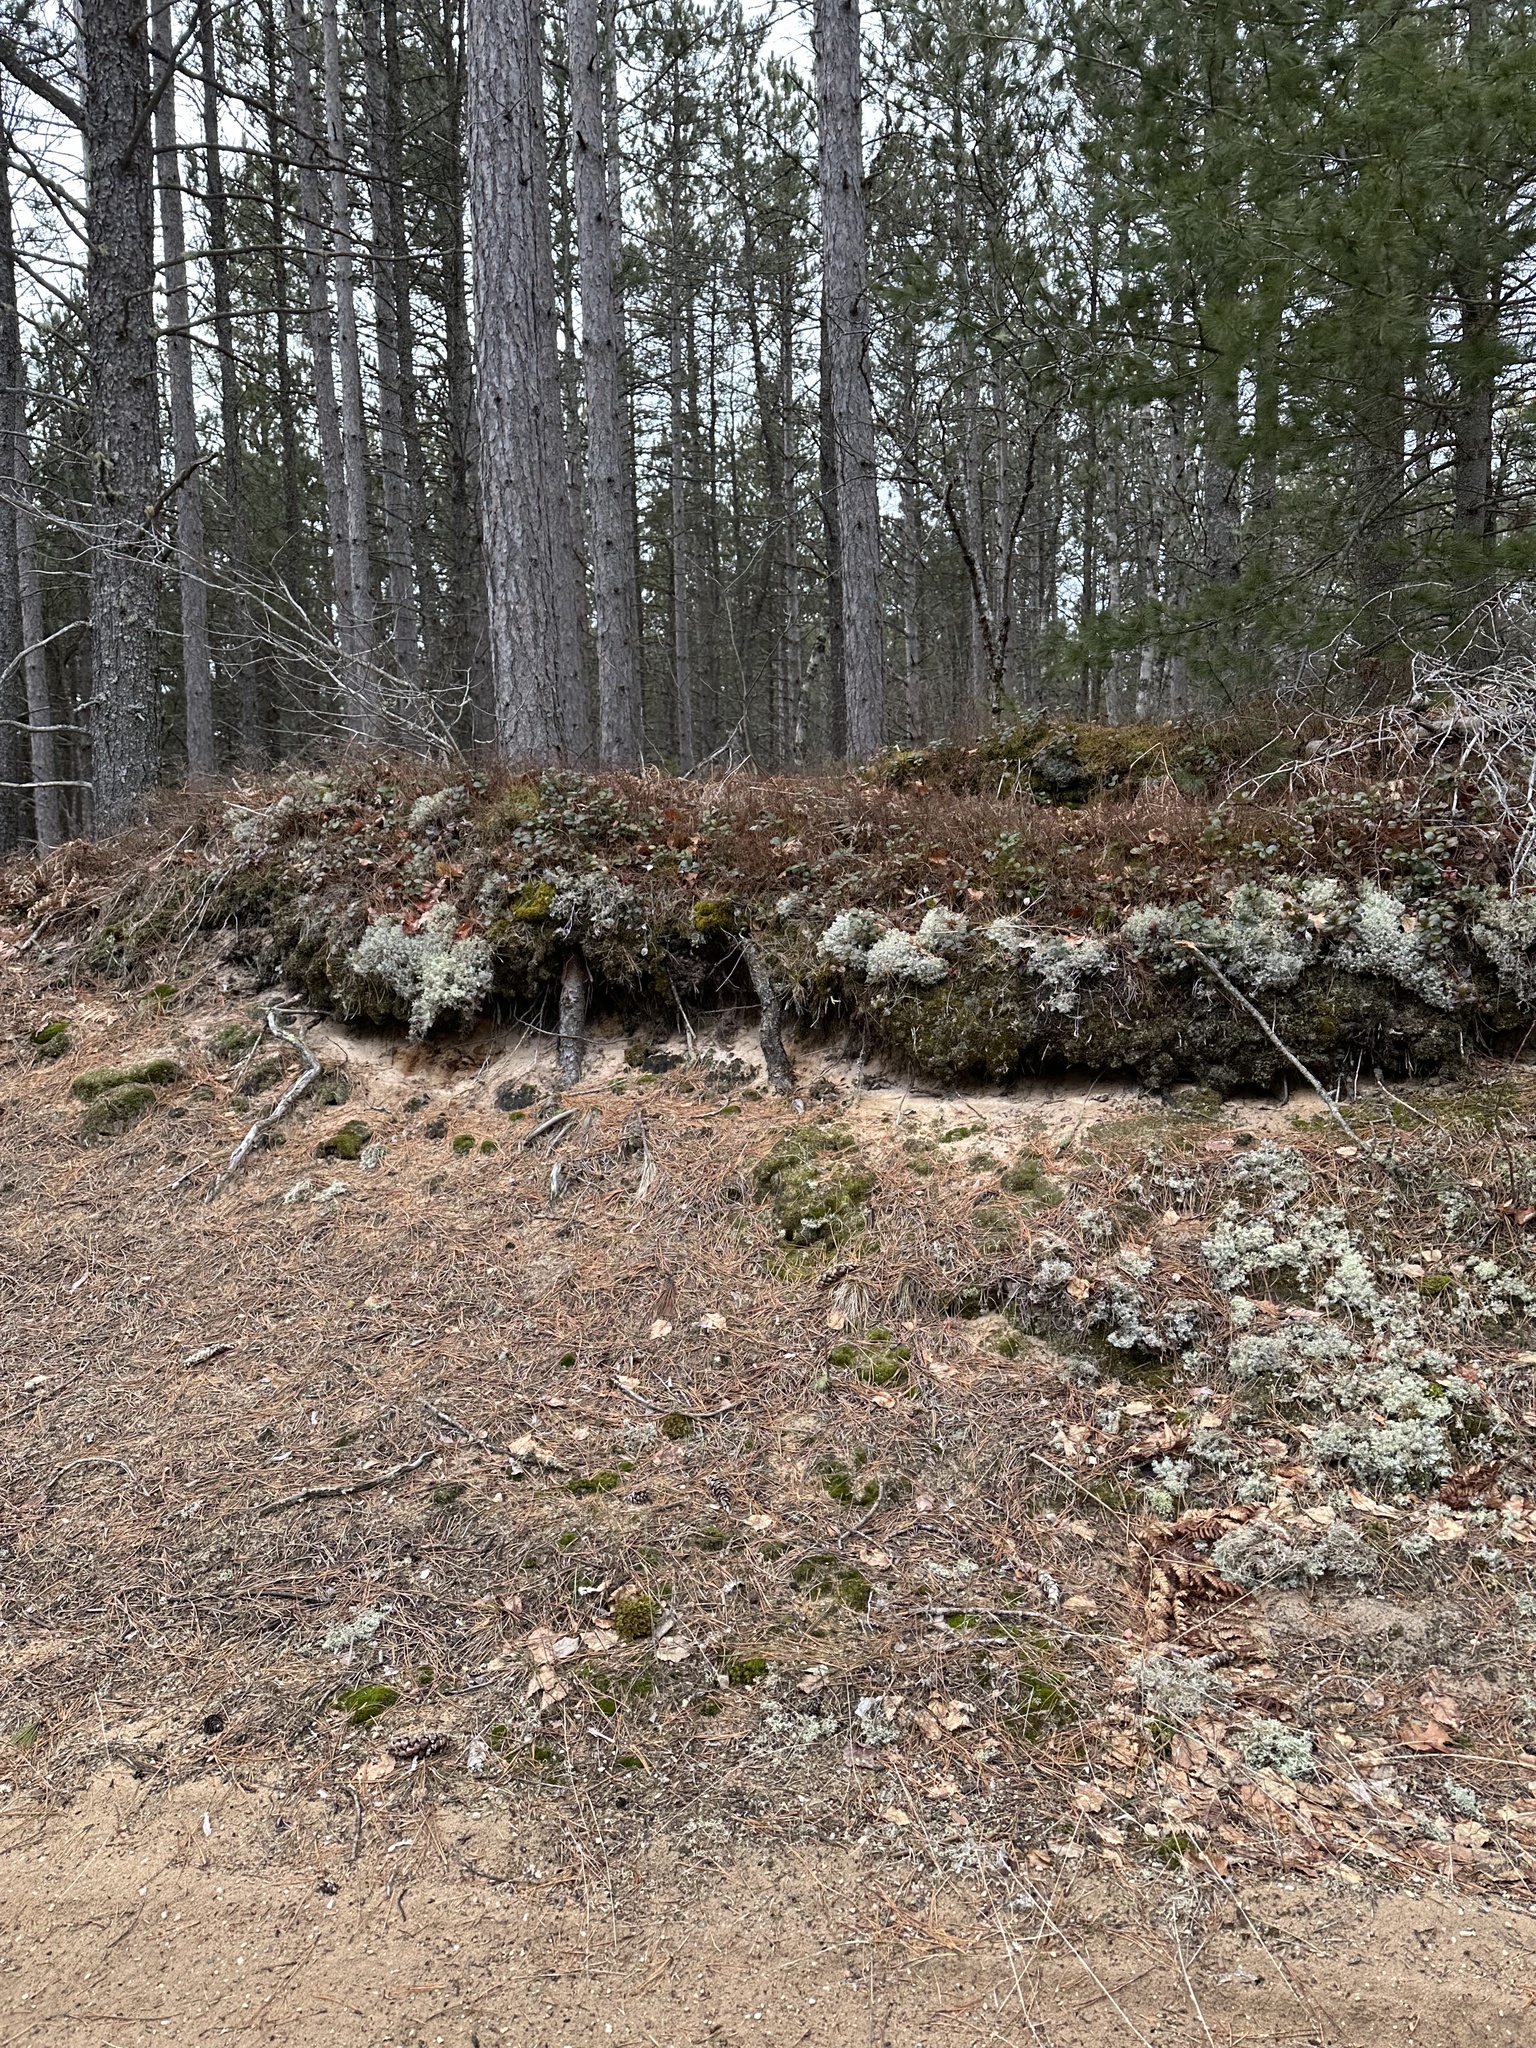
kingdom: Fungi
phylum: Ascomycota
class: Lecanoromycetes
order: Lecanorales
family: Cladoniaceae
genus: Cladonia
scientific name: Cladonia rangiferina
